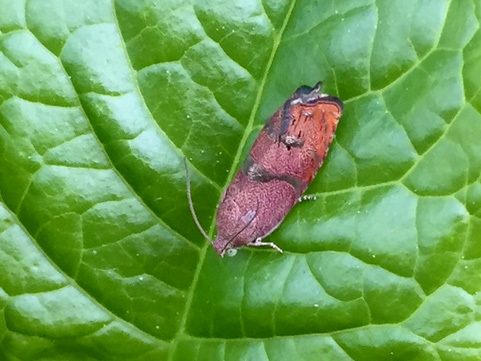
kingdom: Animalia
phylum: Arthropoda
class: Insecta
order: Lepidoptera
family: Tortricidae
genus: Cydia
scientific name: Cydia latiferreana
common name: Filbertworm moth
